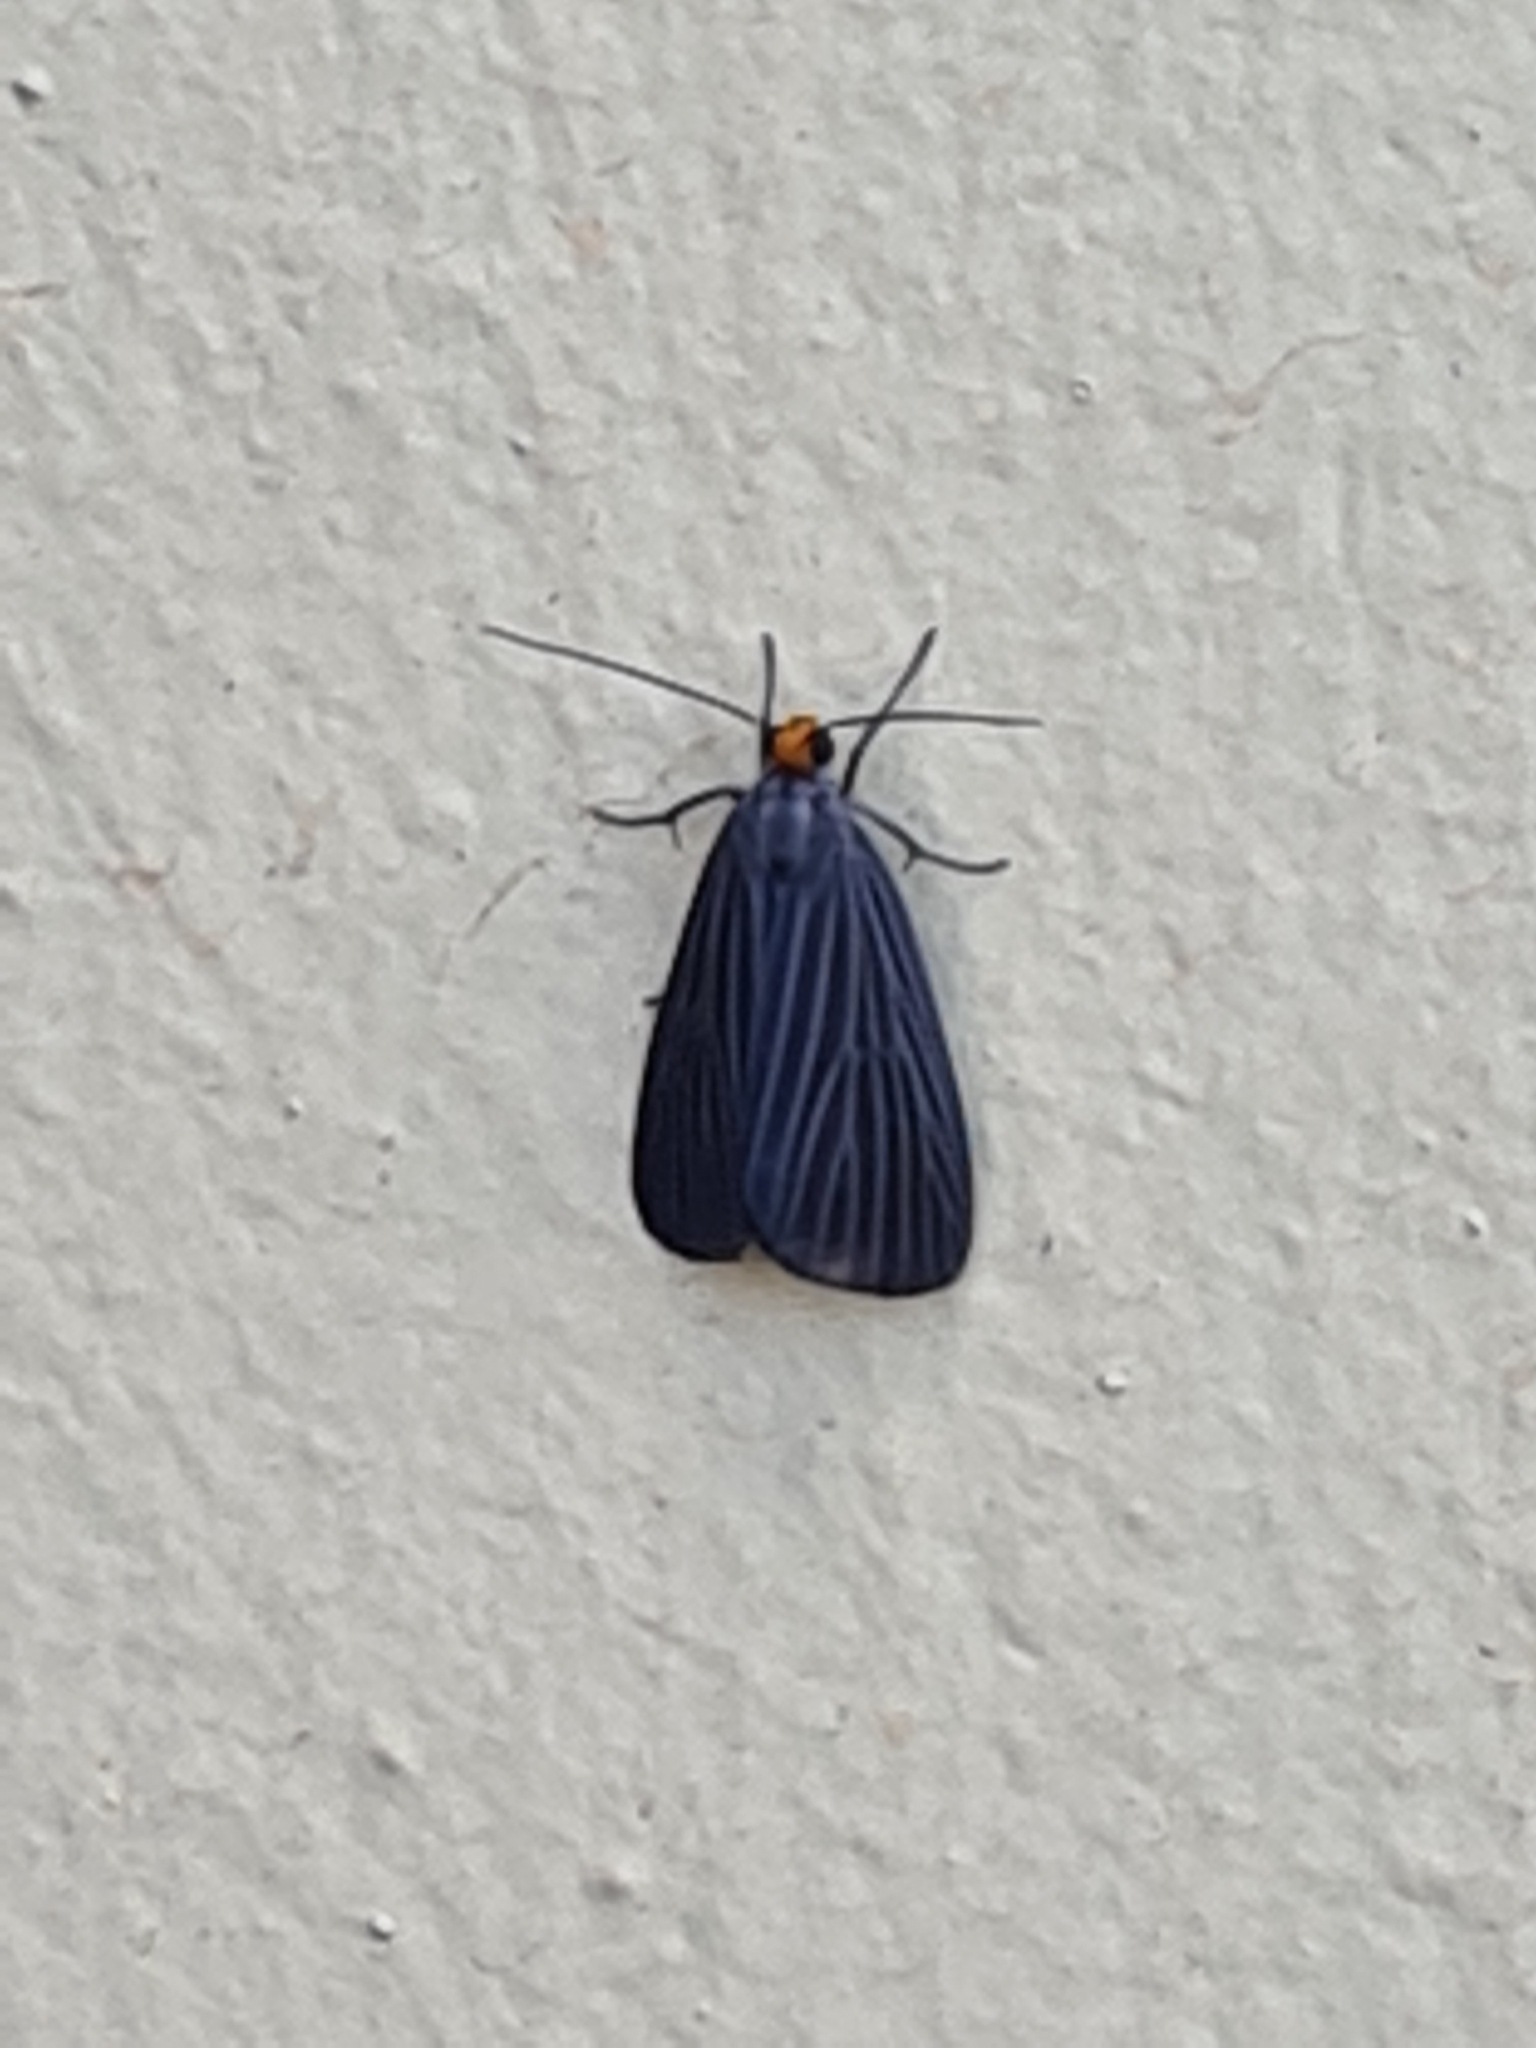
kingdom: Animalia
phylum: Arthropoda
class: Insecta
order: Lepidoptera
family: Notodontidae
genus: Scotura
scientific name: Scotura leucophleps
